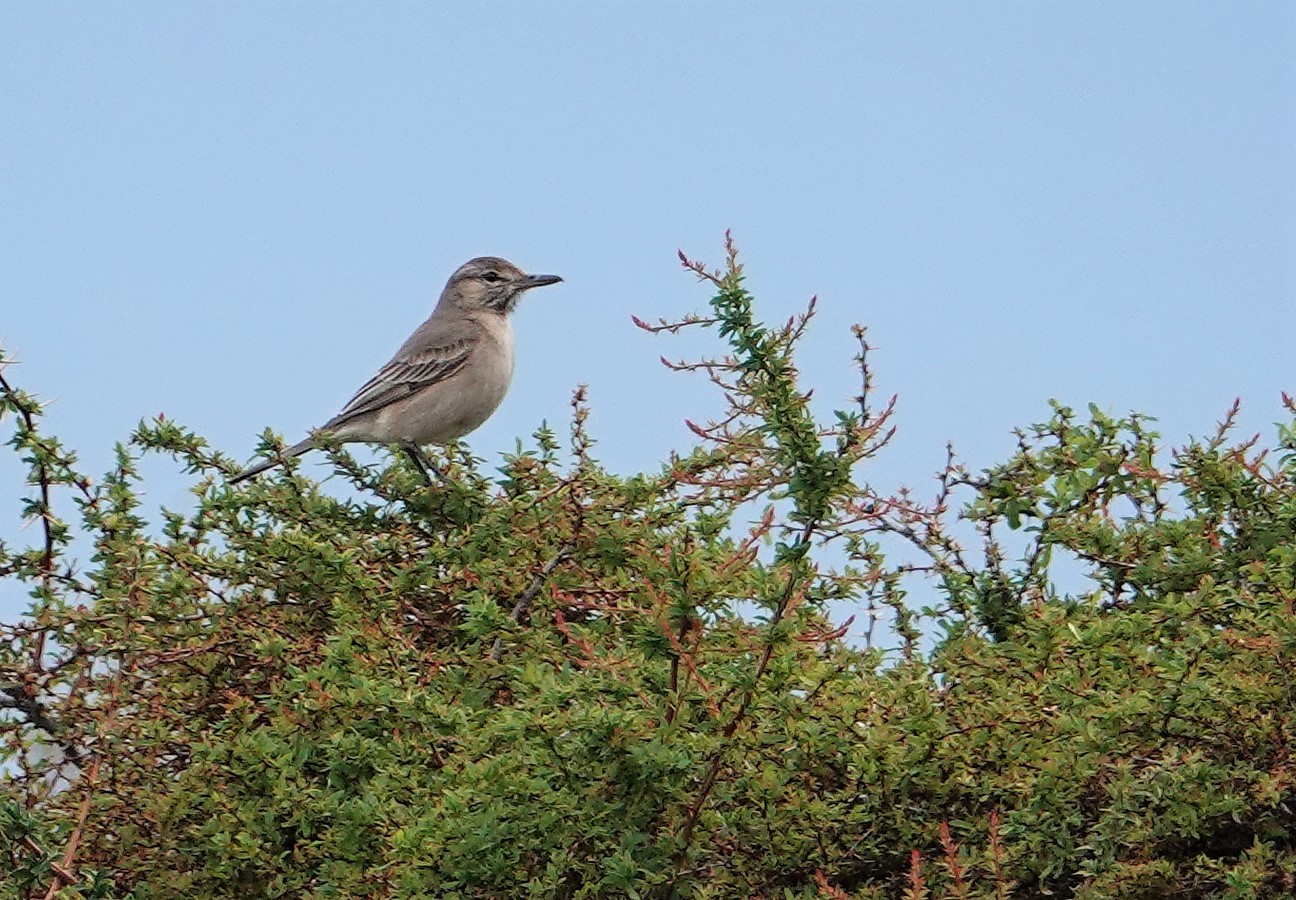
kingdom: Animalia
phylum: Chordata
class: Aves
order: Passeriformes
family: Tyrannidae
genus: Agriornis
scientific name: Agriornis micropterus
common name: Grey-bellied shrike-tyrant
